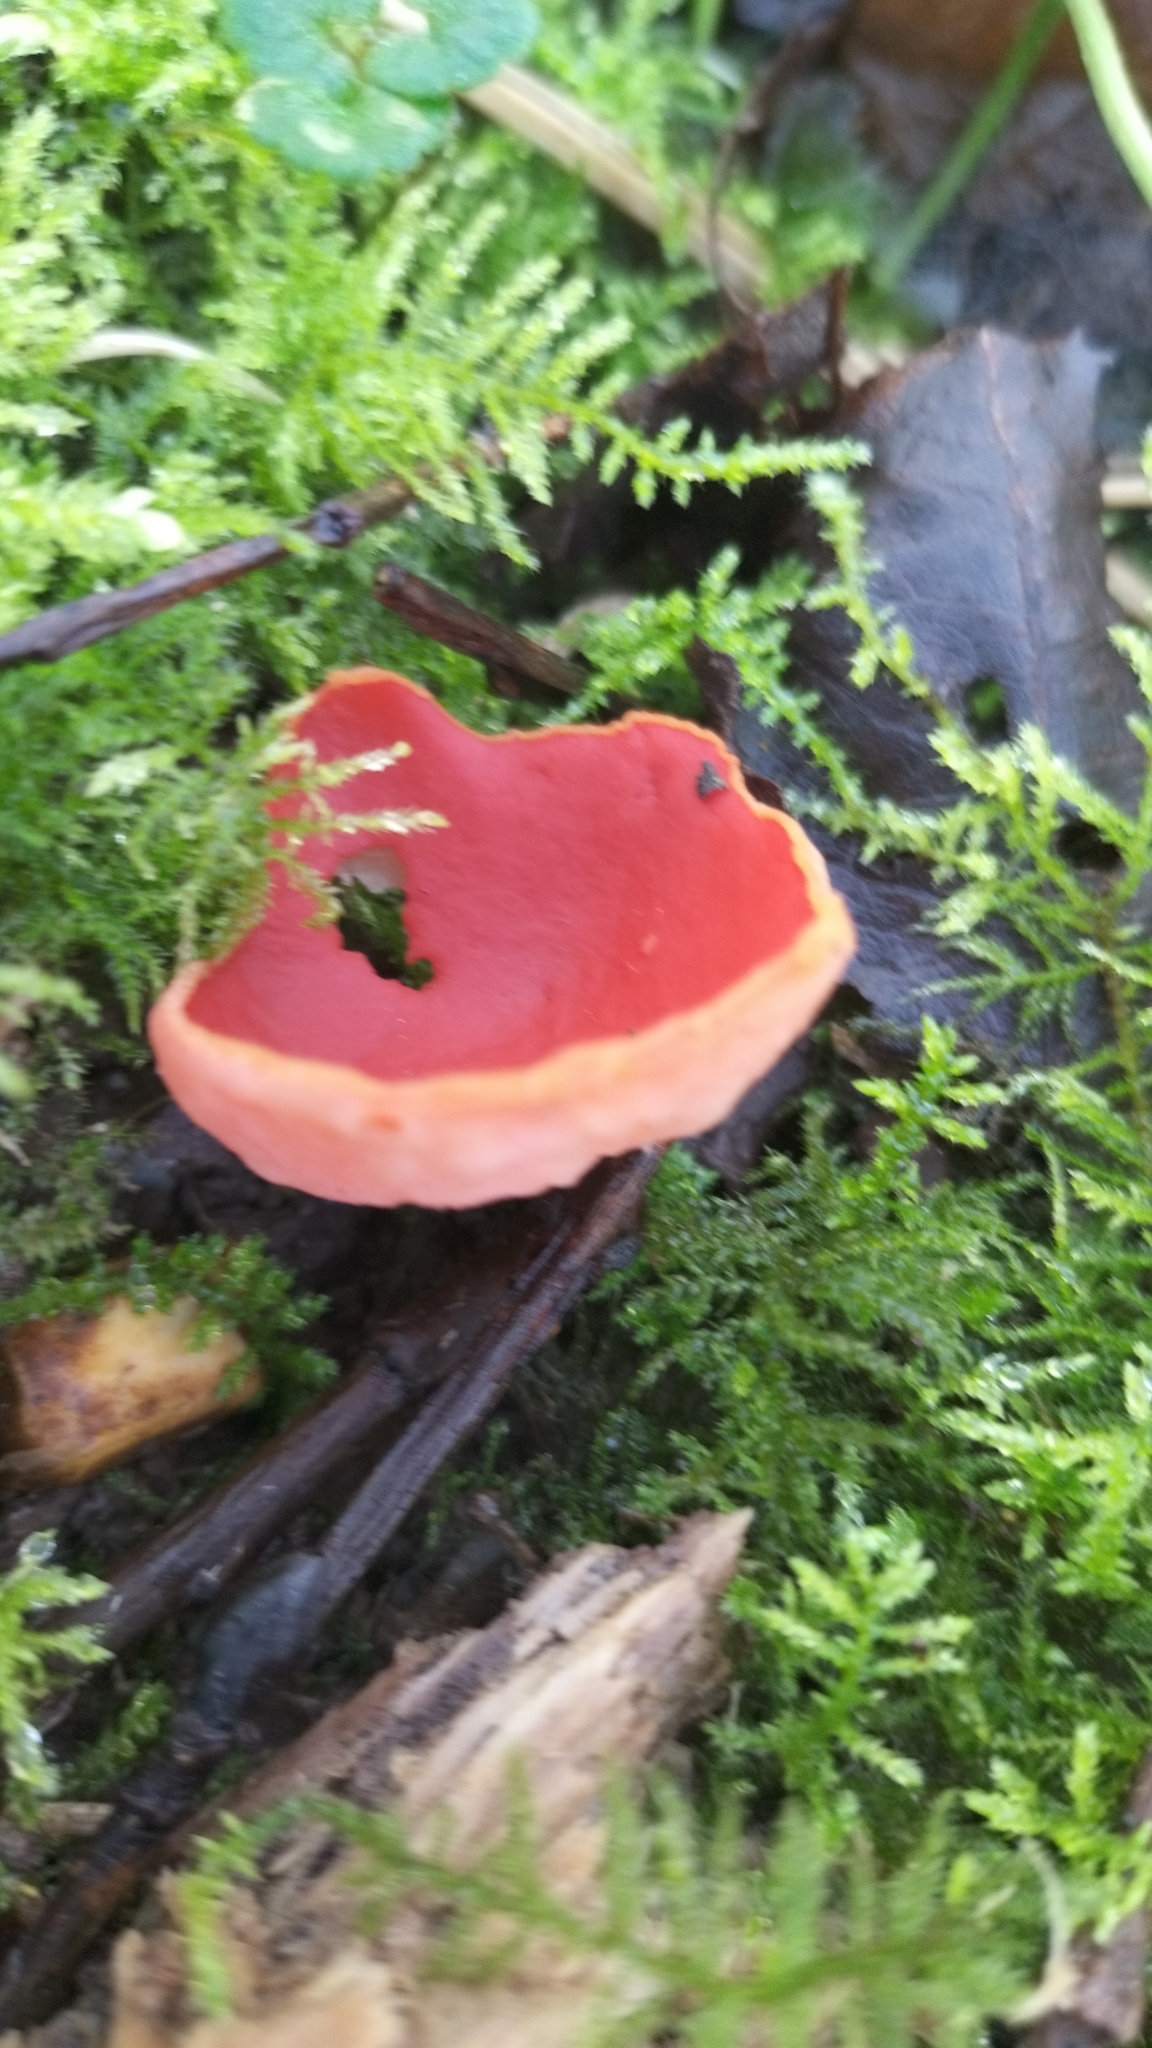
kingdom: Fungi
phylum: Ascomycota
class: Pezizomycetes
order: Pezizales
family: Sarcoscyphaceae
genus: Sarcoscypha
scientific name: Sarcoscypha
